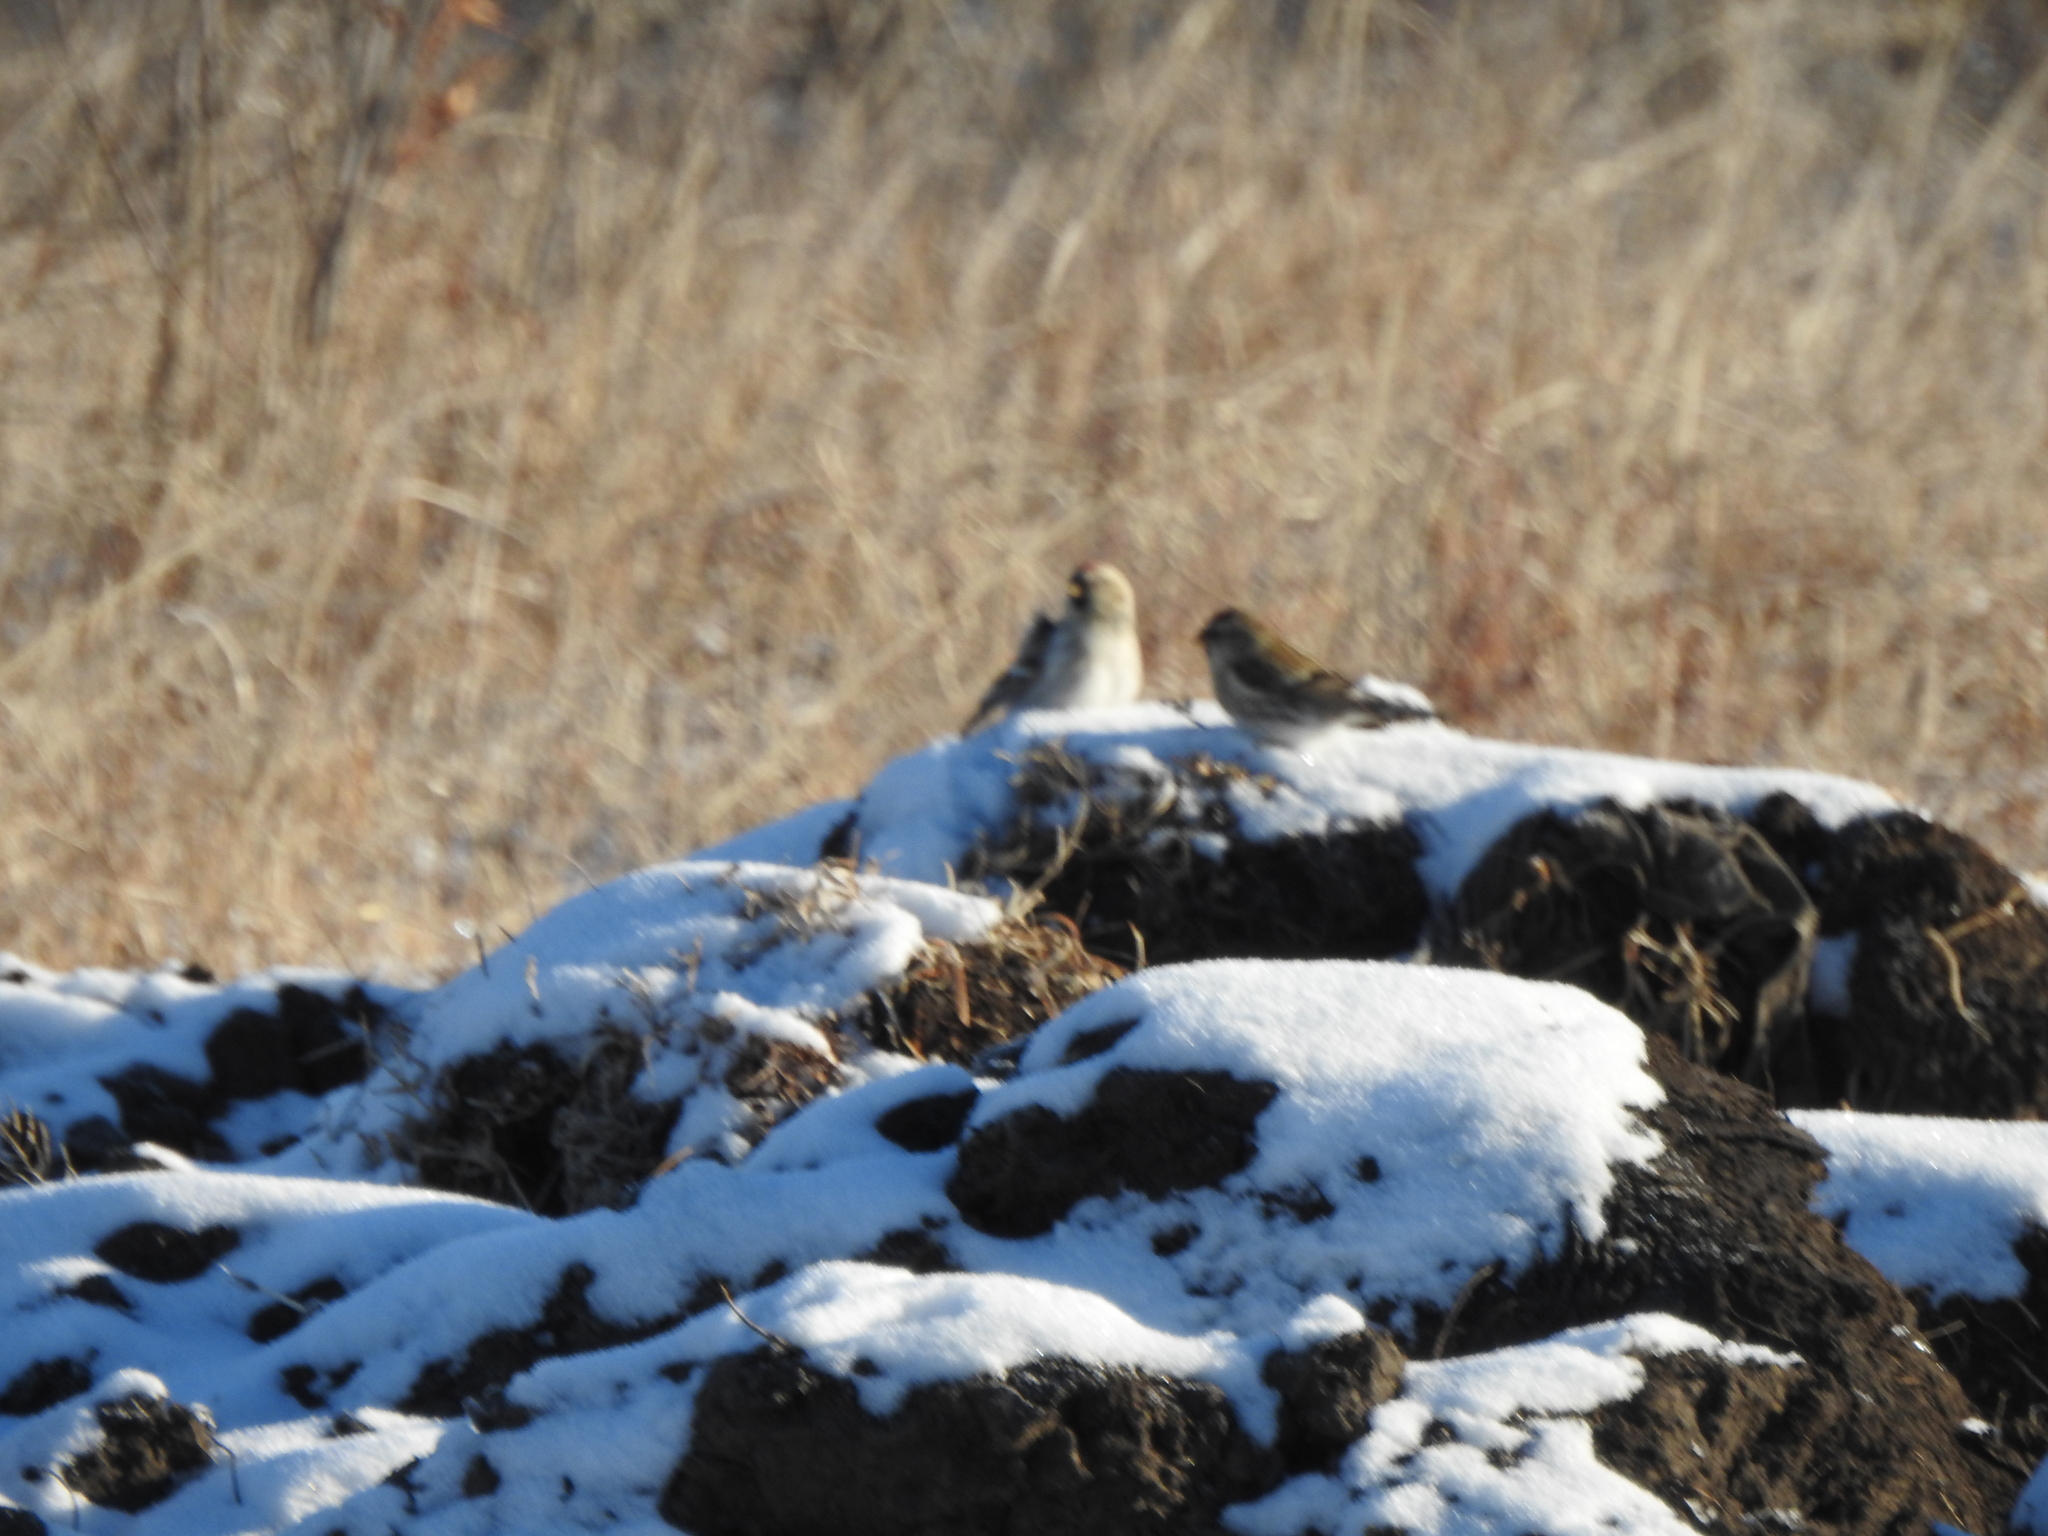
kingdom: Animalia
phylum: Chordata
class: Aves
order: Passeriformes
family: Fringillidae
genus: Acanthis
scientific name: Acanthis flammea
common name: Common redpoll
